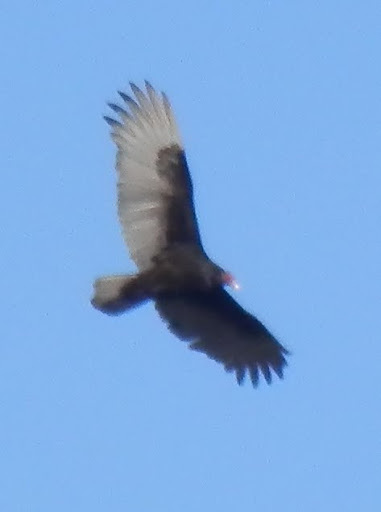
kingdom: Animalia
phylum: Chordata
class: Aves
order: Accipitriformes
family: Cathartidae
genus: Cathartes
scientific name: Cathartes aura
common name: Turkey vulture
